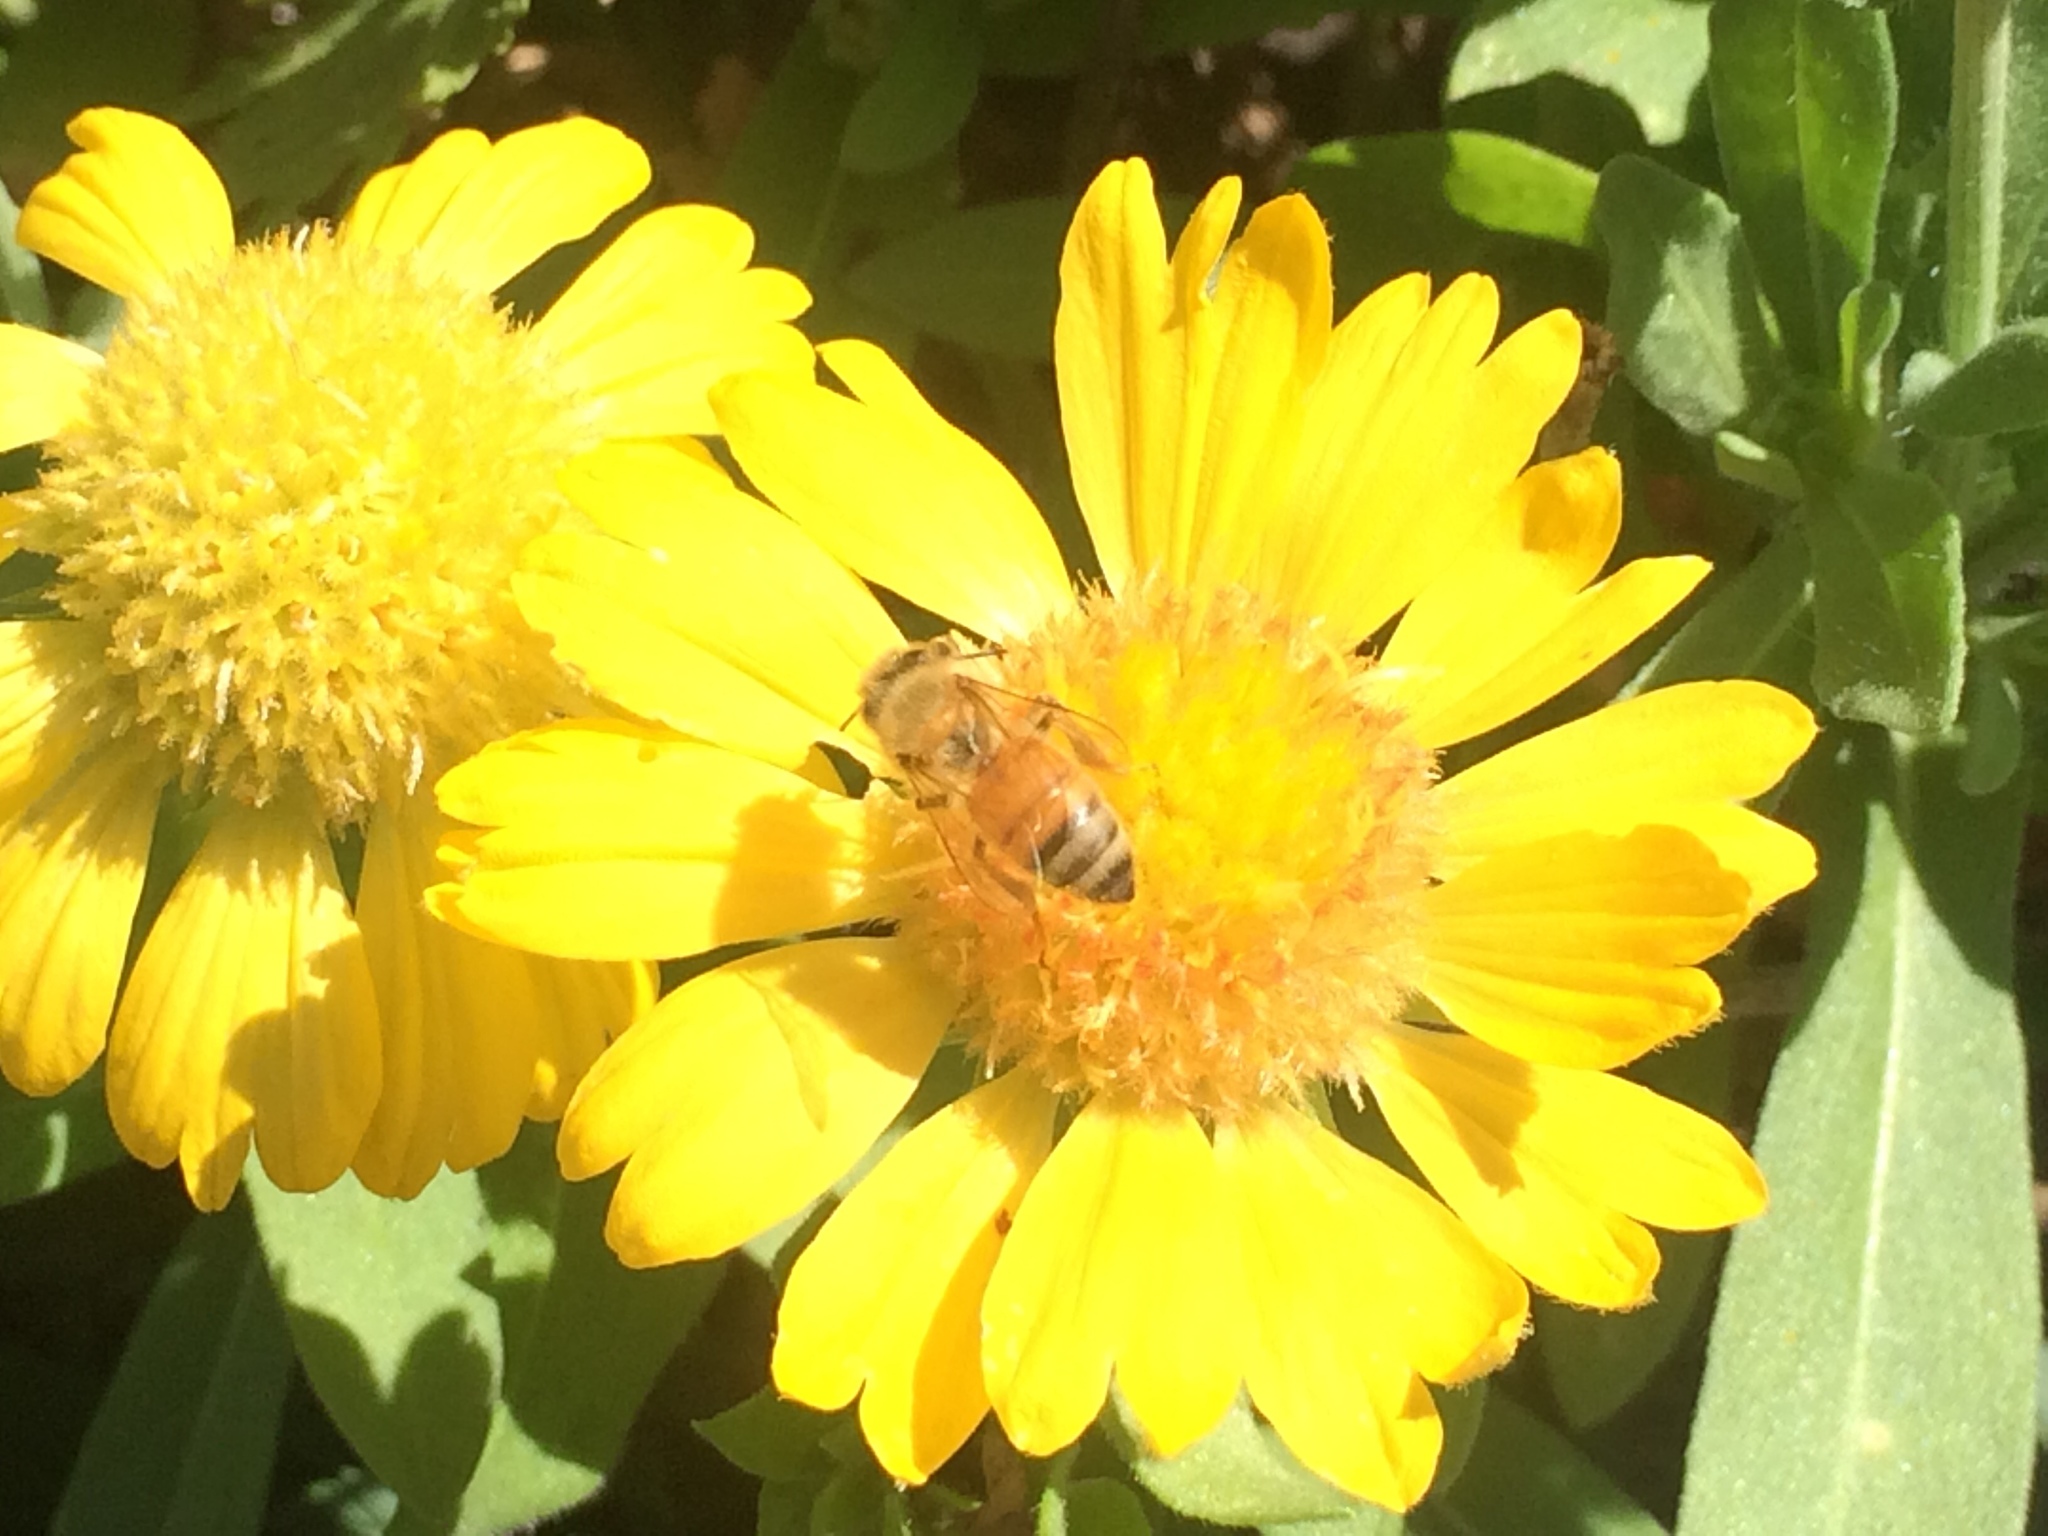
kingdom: Animalia
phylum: Arthropoda
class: Insecta
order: Hymenoptera
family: Apidae
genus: Apis
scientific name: Apis mellifera
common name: Honey bee
